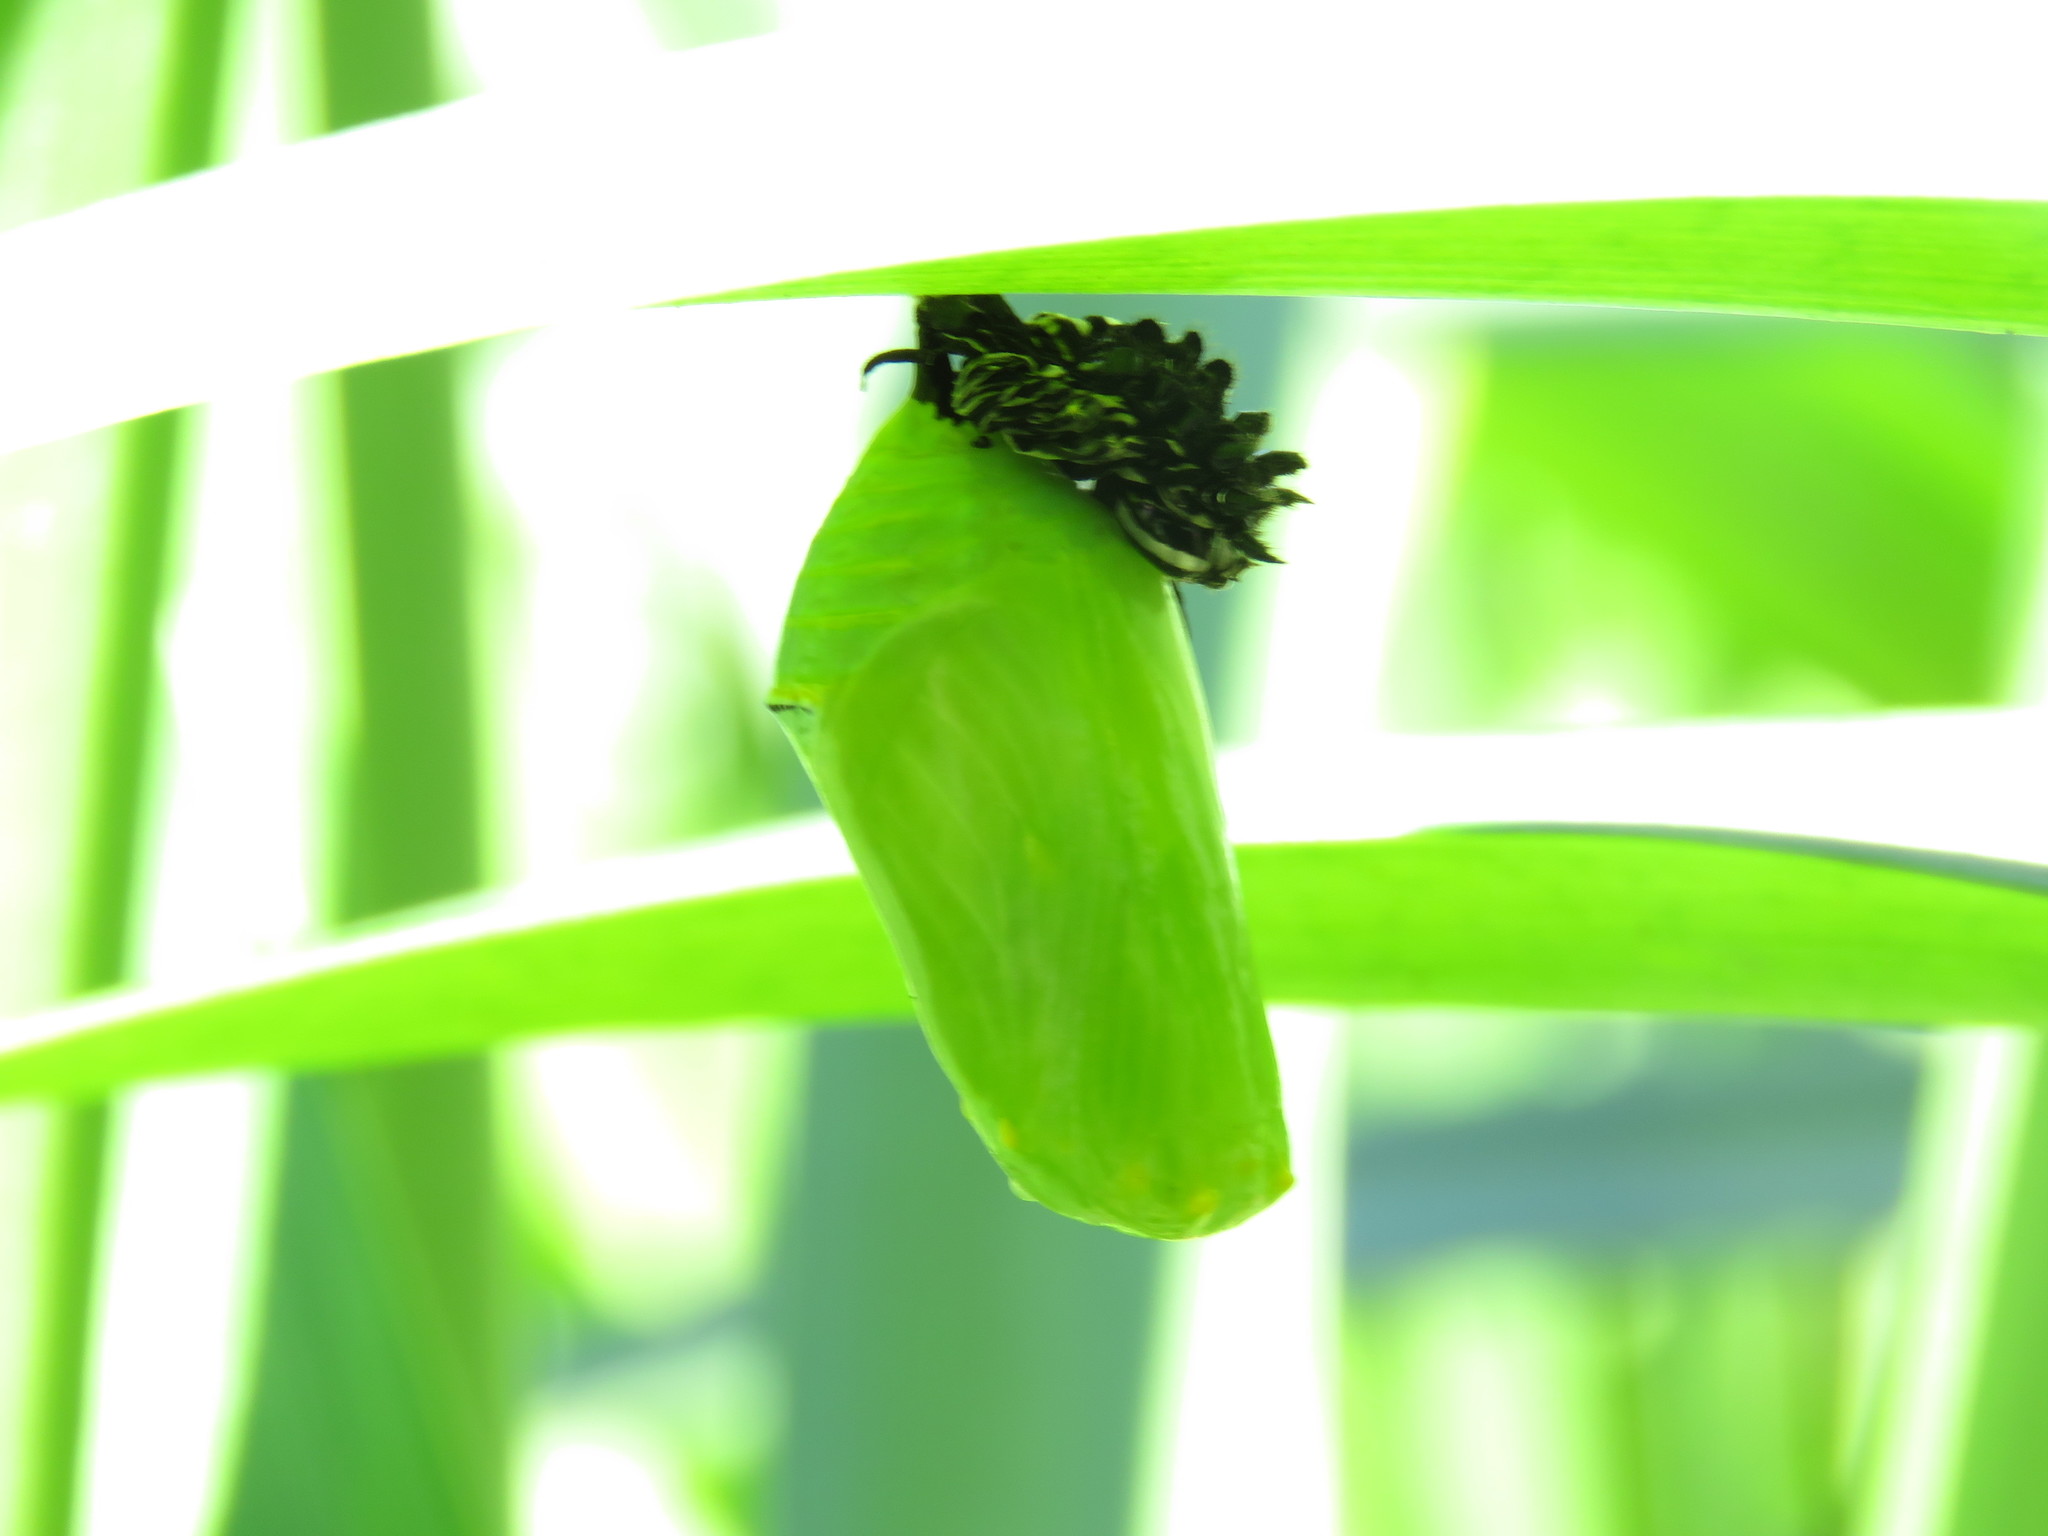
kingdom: Animalia
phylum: Arthropoda
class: Insecta
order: Lepidoptera
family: Nymphalidae
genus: Danaus
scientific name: Danaus plexippus
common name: Monarch
